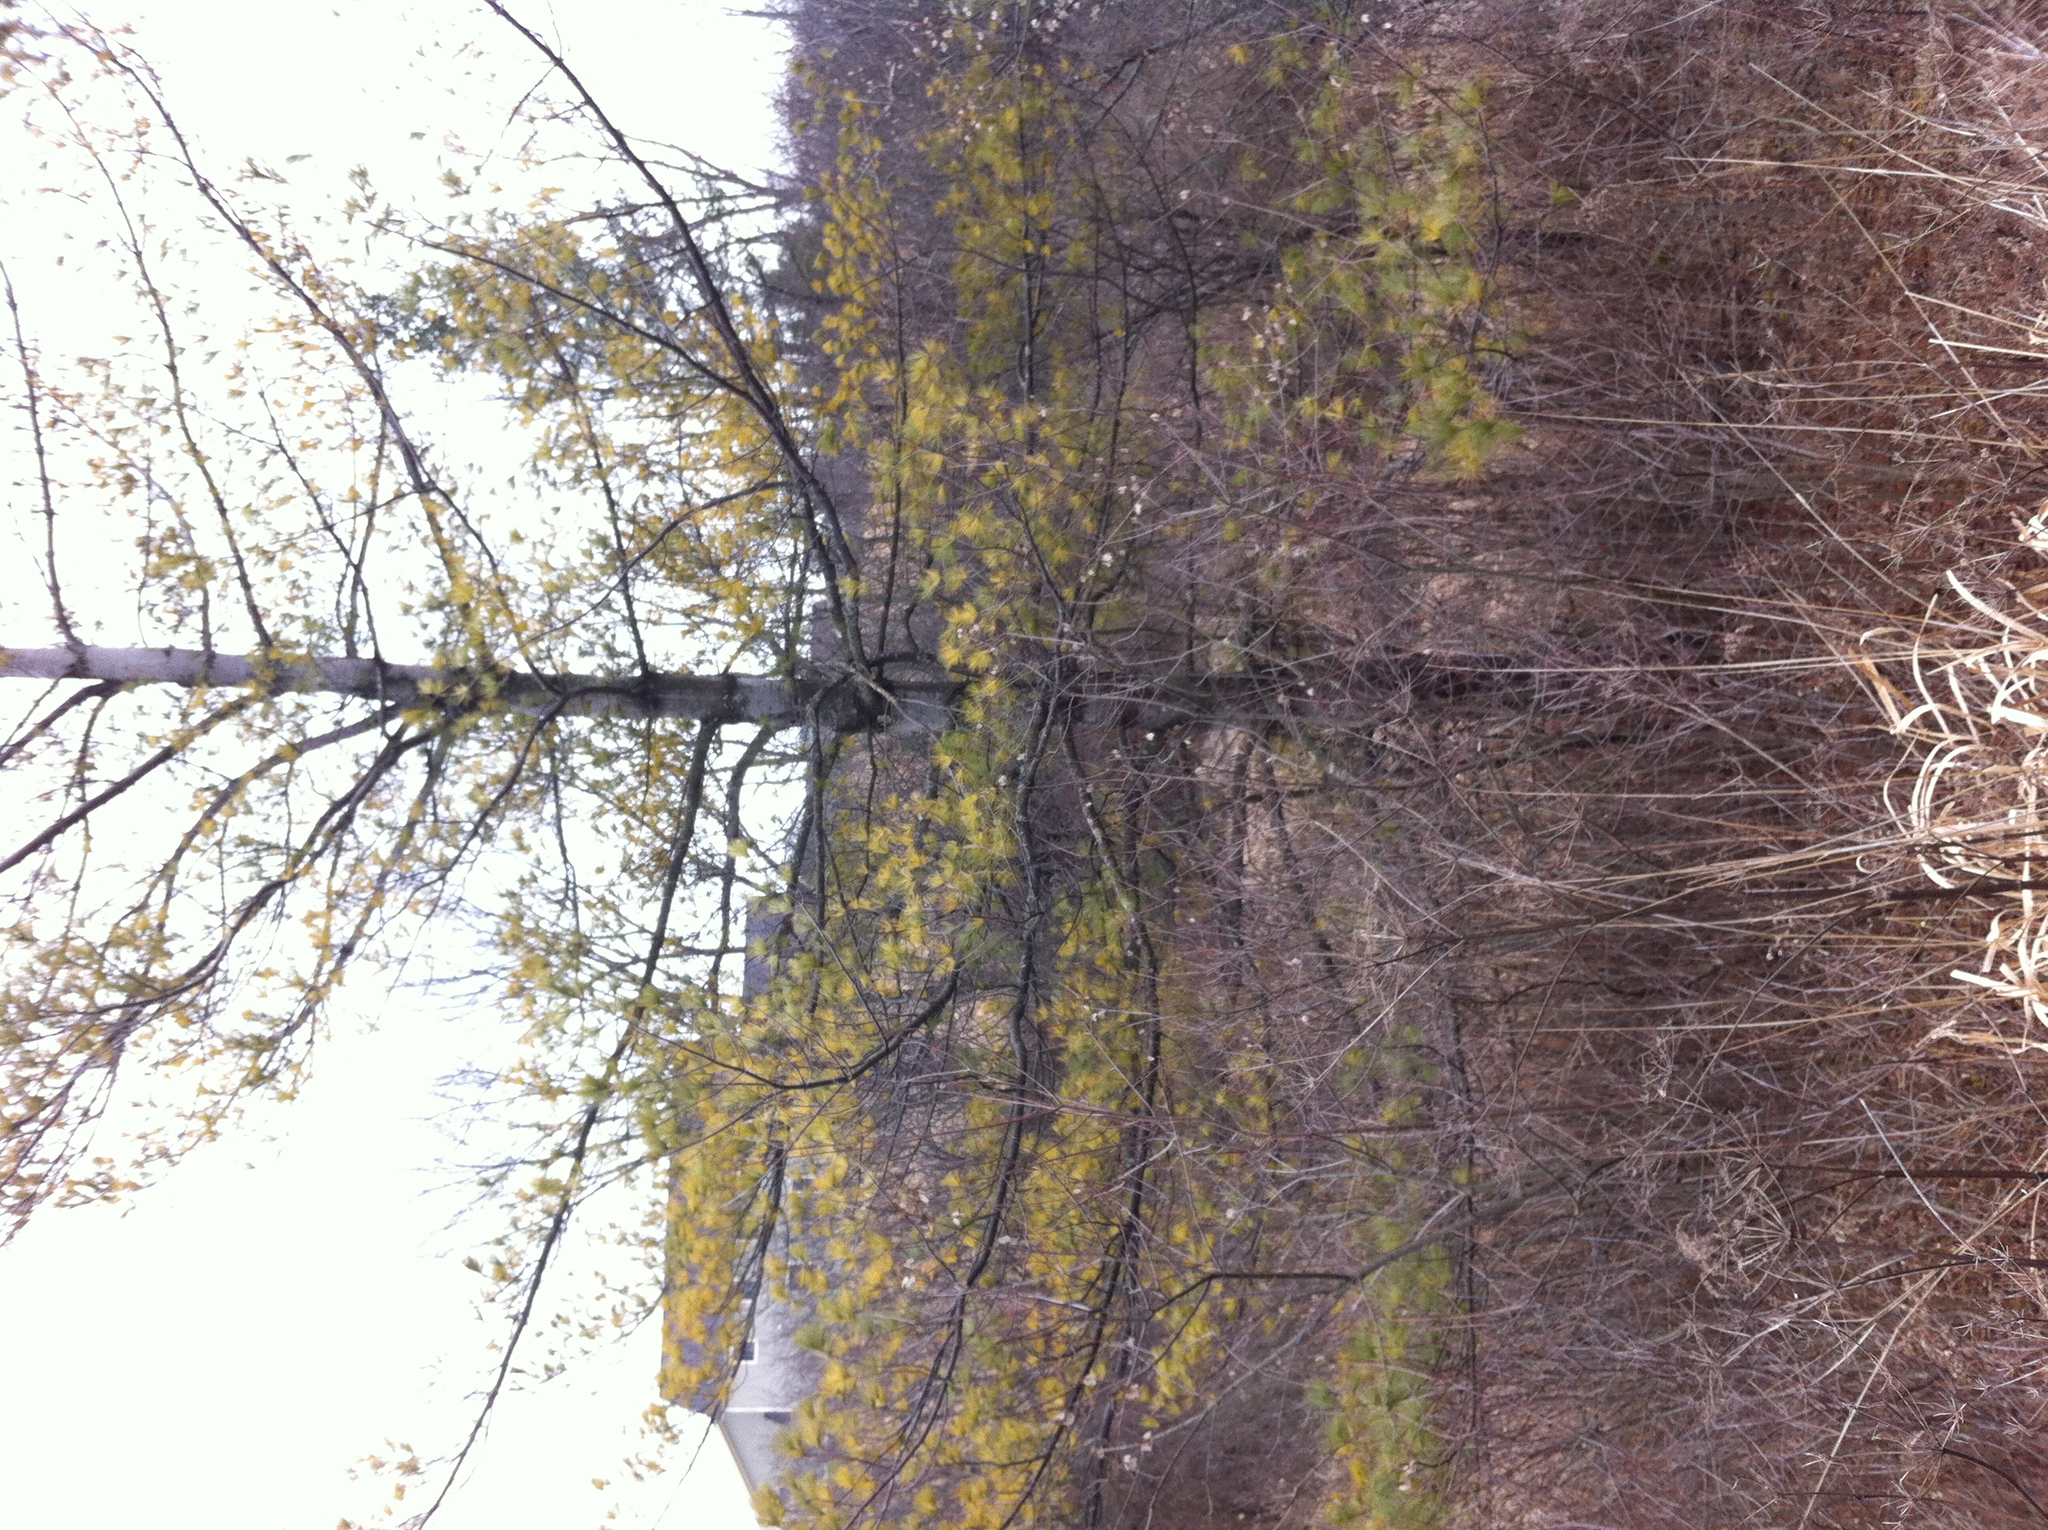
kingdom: Plantae
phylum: Tracheophyta
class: Pinopsida
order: Pinales
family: Pinaceae
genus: Pinus
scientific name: Pinus strobus
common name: Weymouth pine
